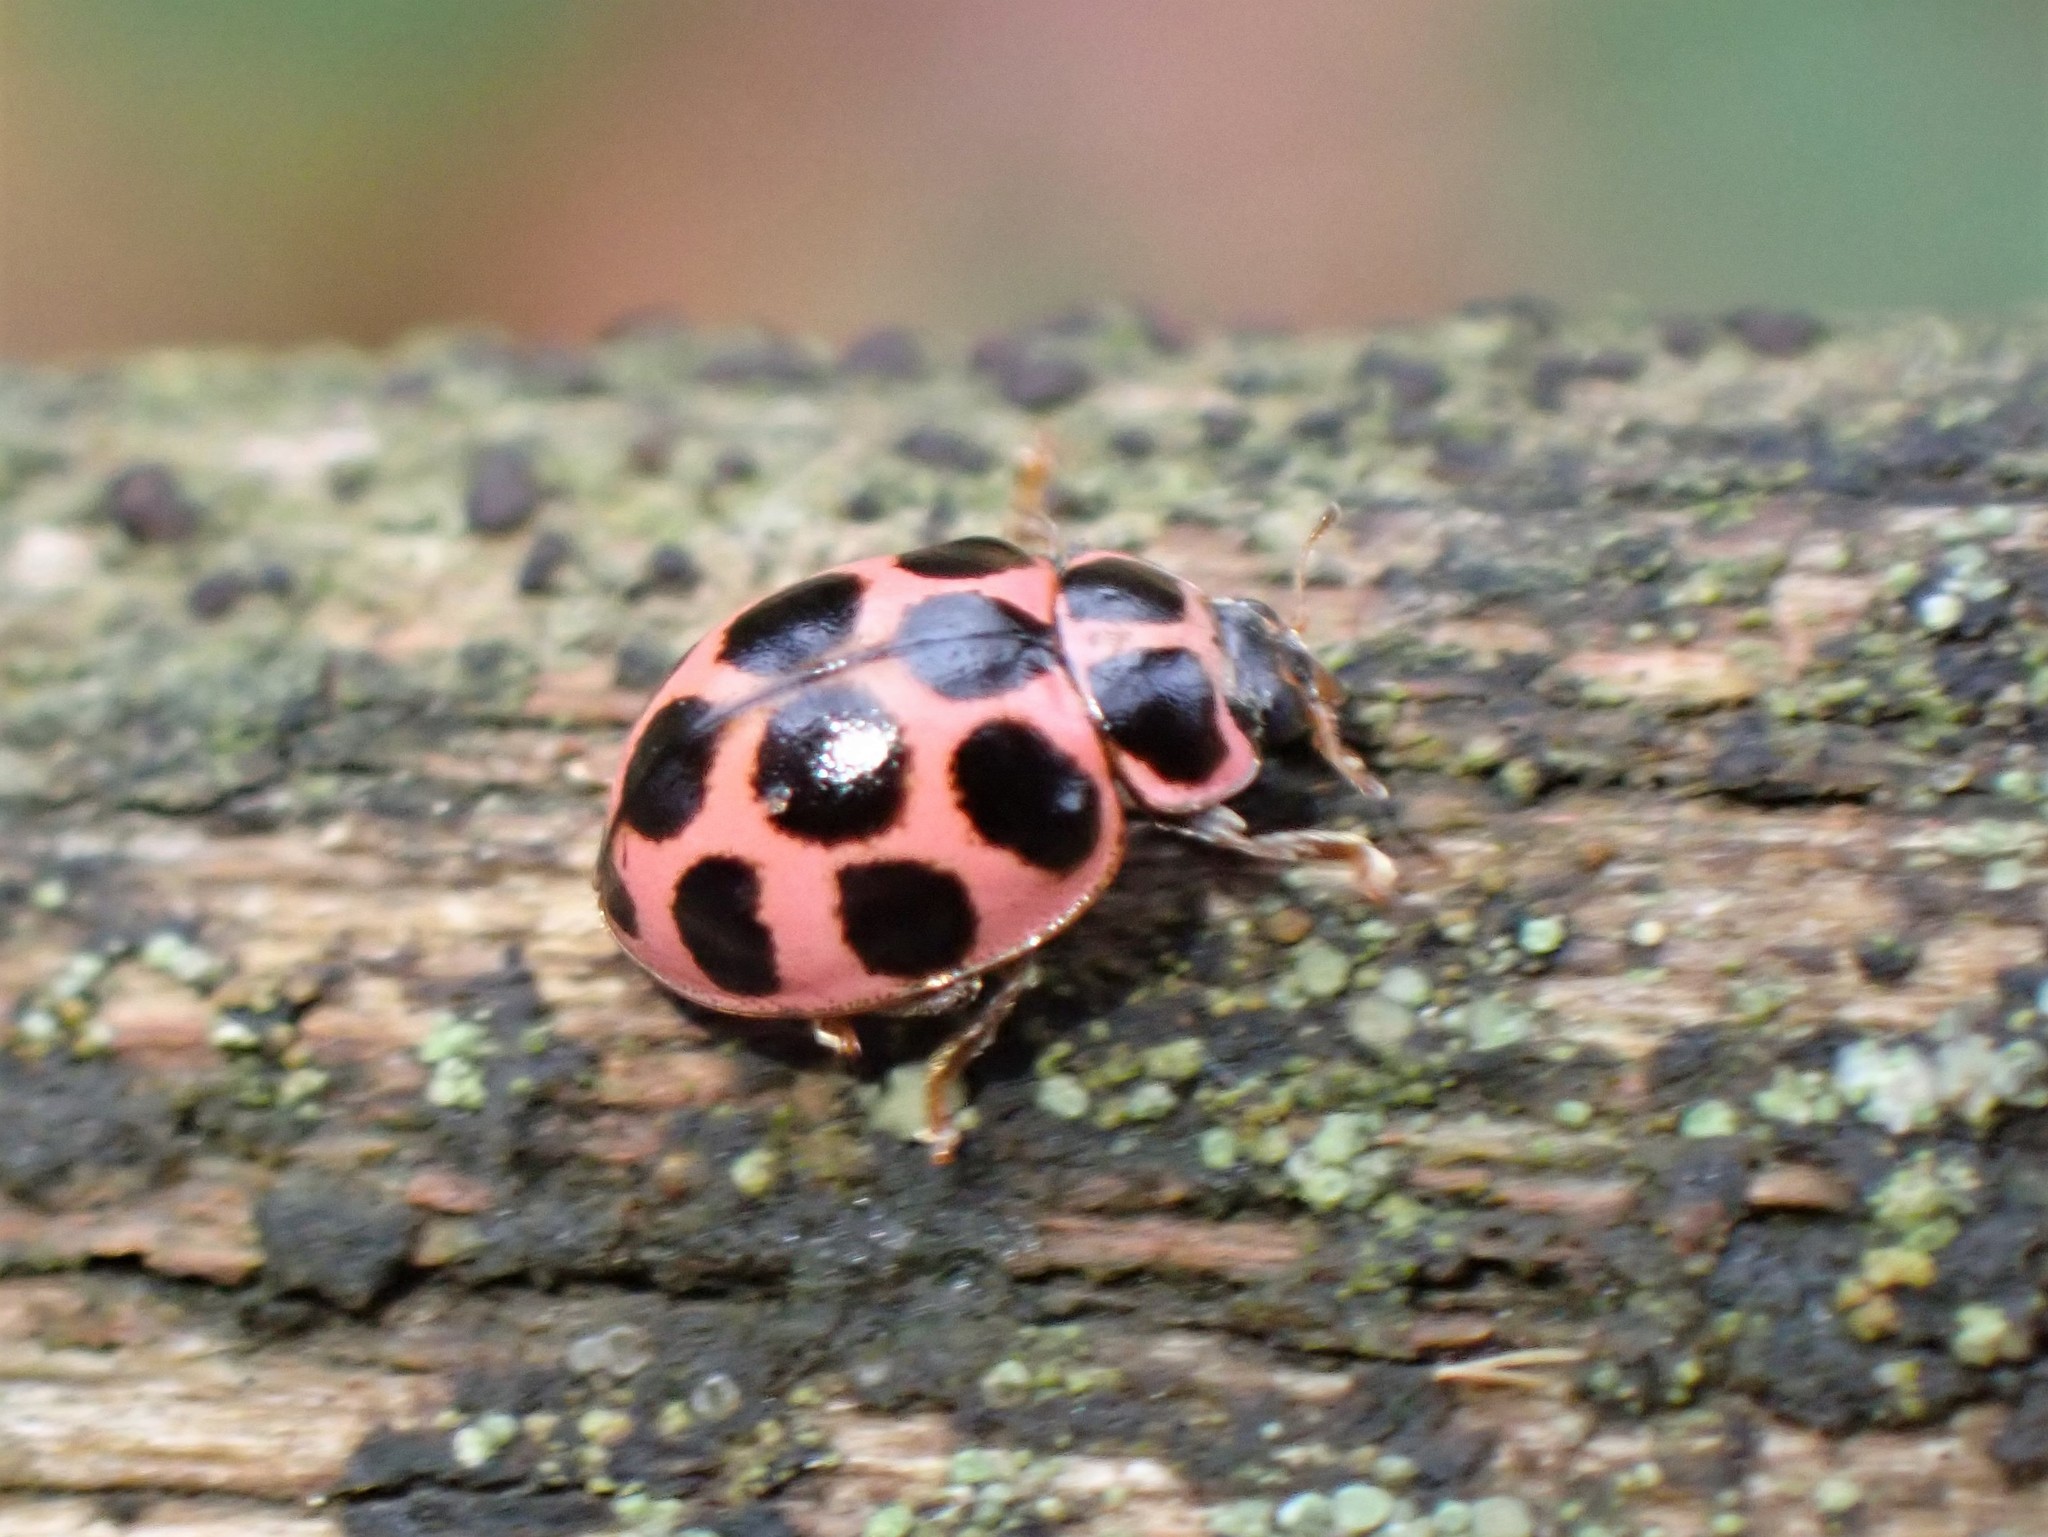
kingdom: Animalia
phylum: Arthropoda
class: Insecta
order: Coleoptera
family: Coccinellidae
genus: Calvia
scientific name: Calvia quatuordecimguttata
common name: Cream-spot ladybird
